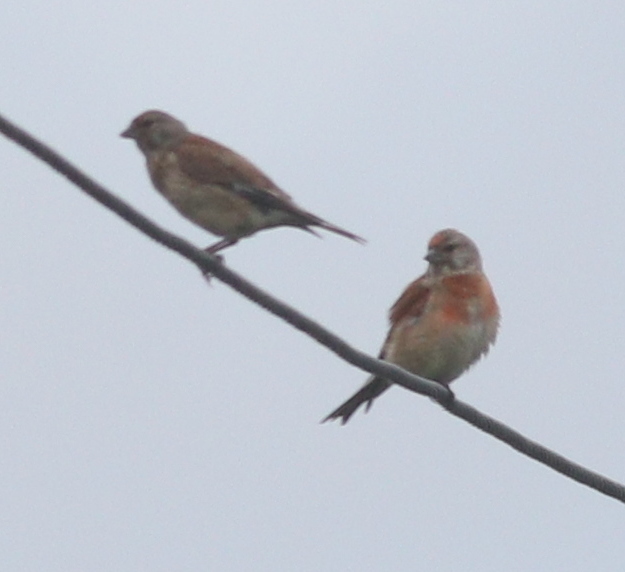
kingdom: Animalia
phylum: Chordata
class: Aves
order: Passeriformes
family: Fringillidae
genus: Linaria
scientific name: Linaria cannabina
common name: Common linnet
